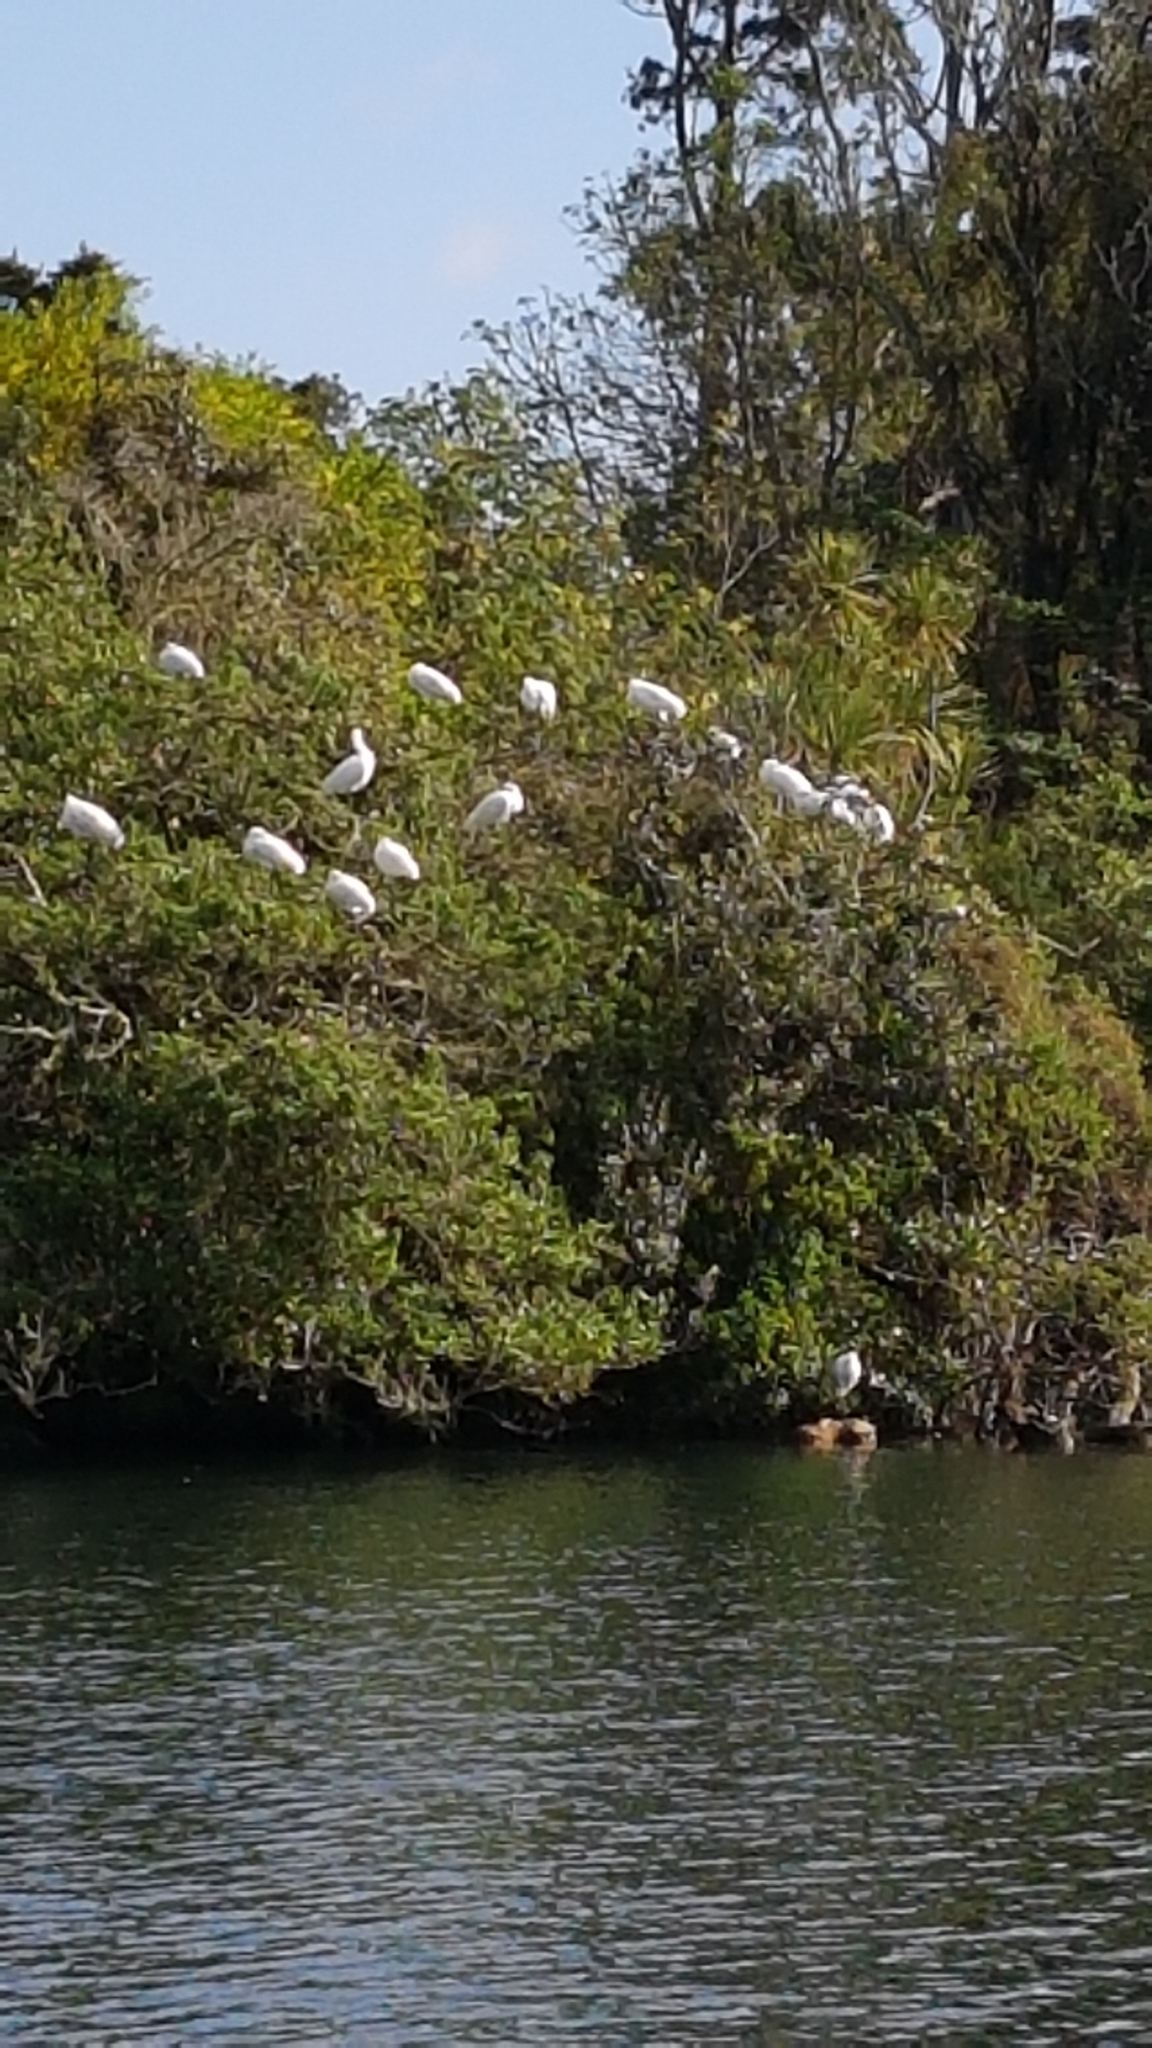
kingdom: Animalia
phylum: Chordata
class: Aves
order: Pelecaniformes
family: Threskiornithidae
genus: Platalea
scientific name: Platalea regia
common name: Royal spoonbill
